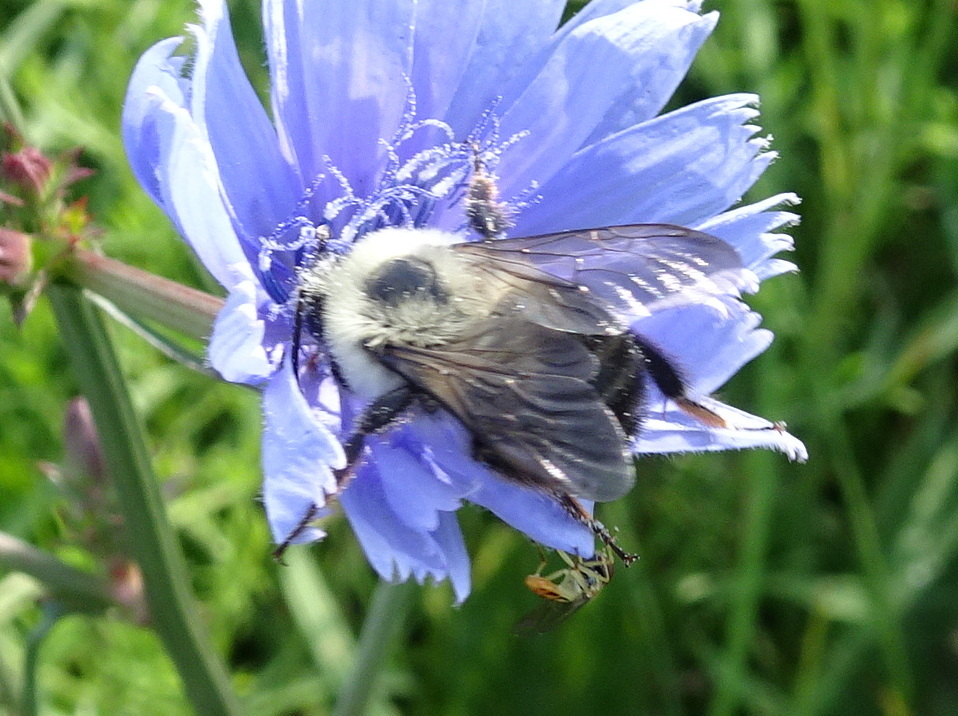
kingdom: Animalia
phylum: Arthropoda
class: Insecta
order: Hymenoptera
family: Apidae
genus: Bombus
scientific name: Bombus bimaculatus
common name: Two-spotted bumble bee
